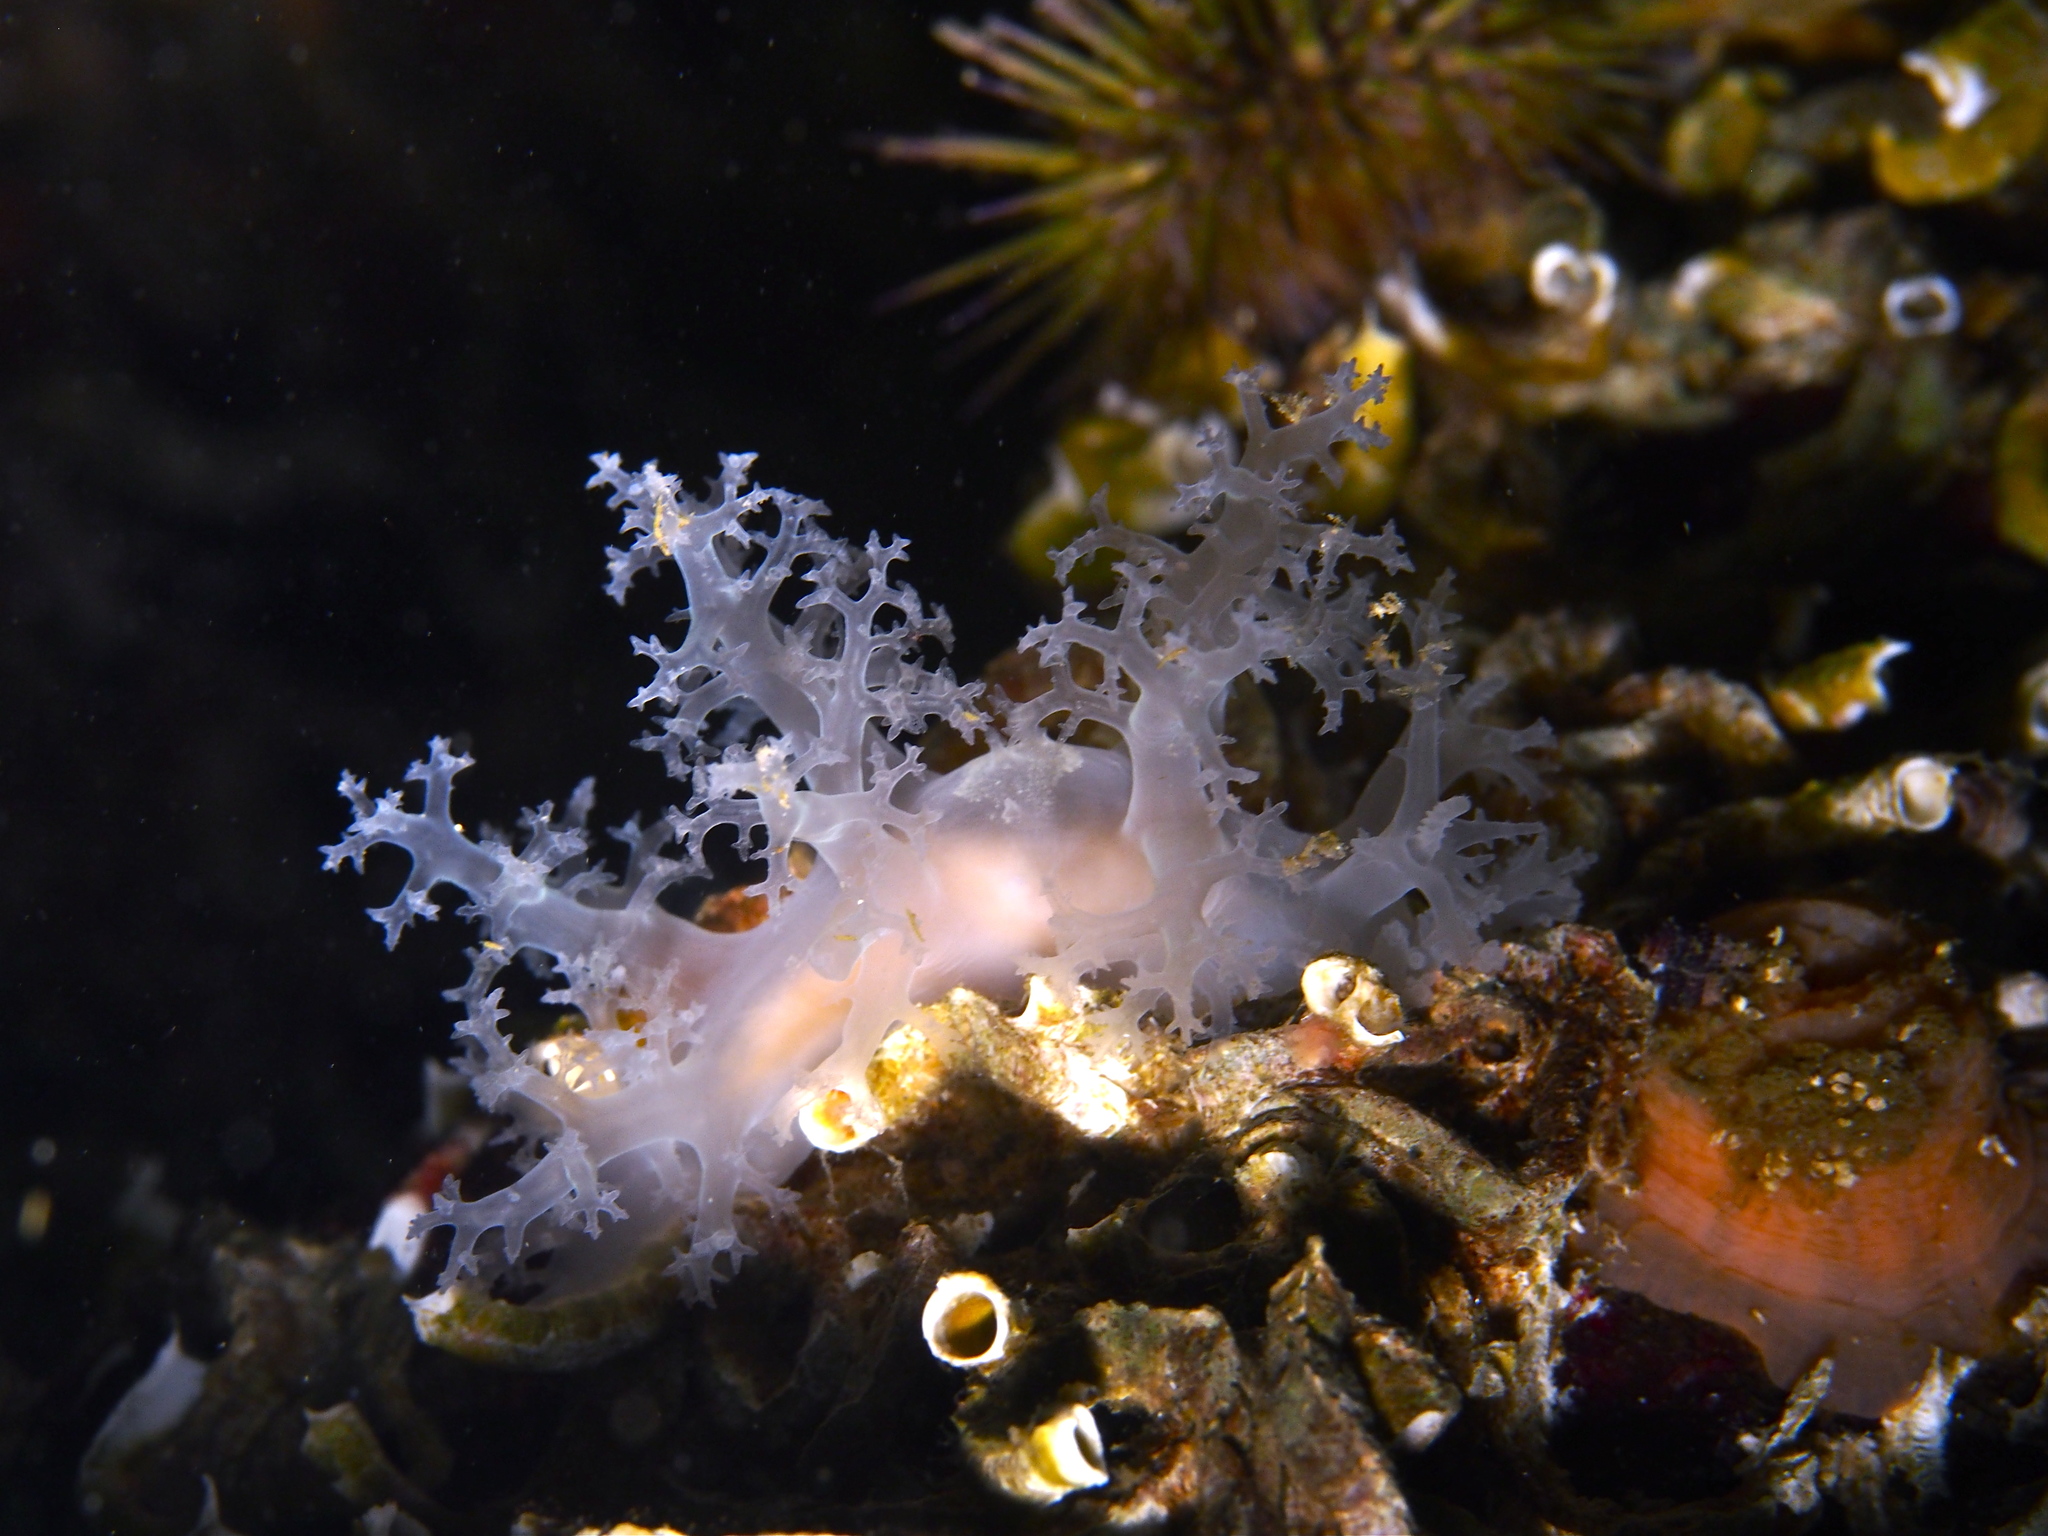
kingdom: Animalia
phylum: Mollusca
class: Gastropoda
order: Nudibranchia
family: Dendronotidae
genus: Dendronotus
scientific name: Dendronotus lacteus
